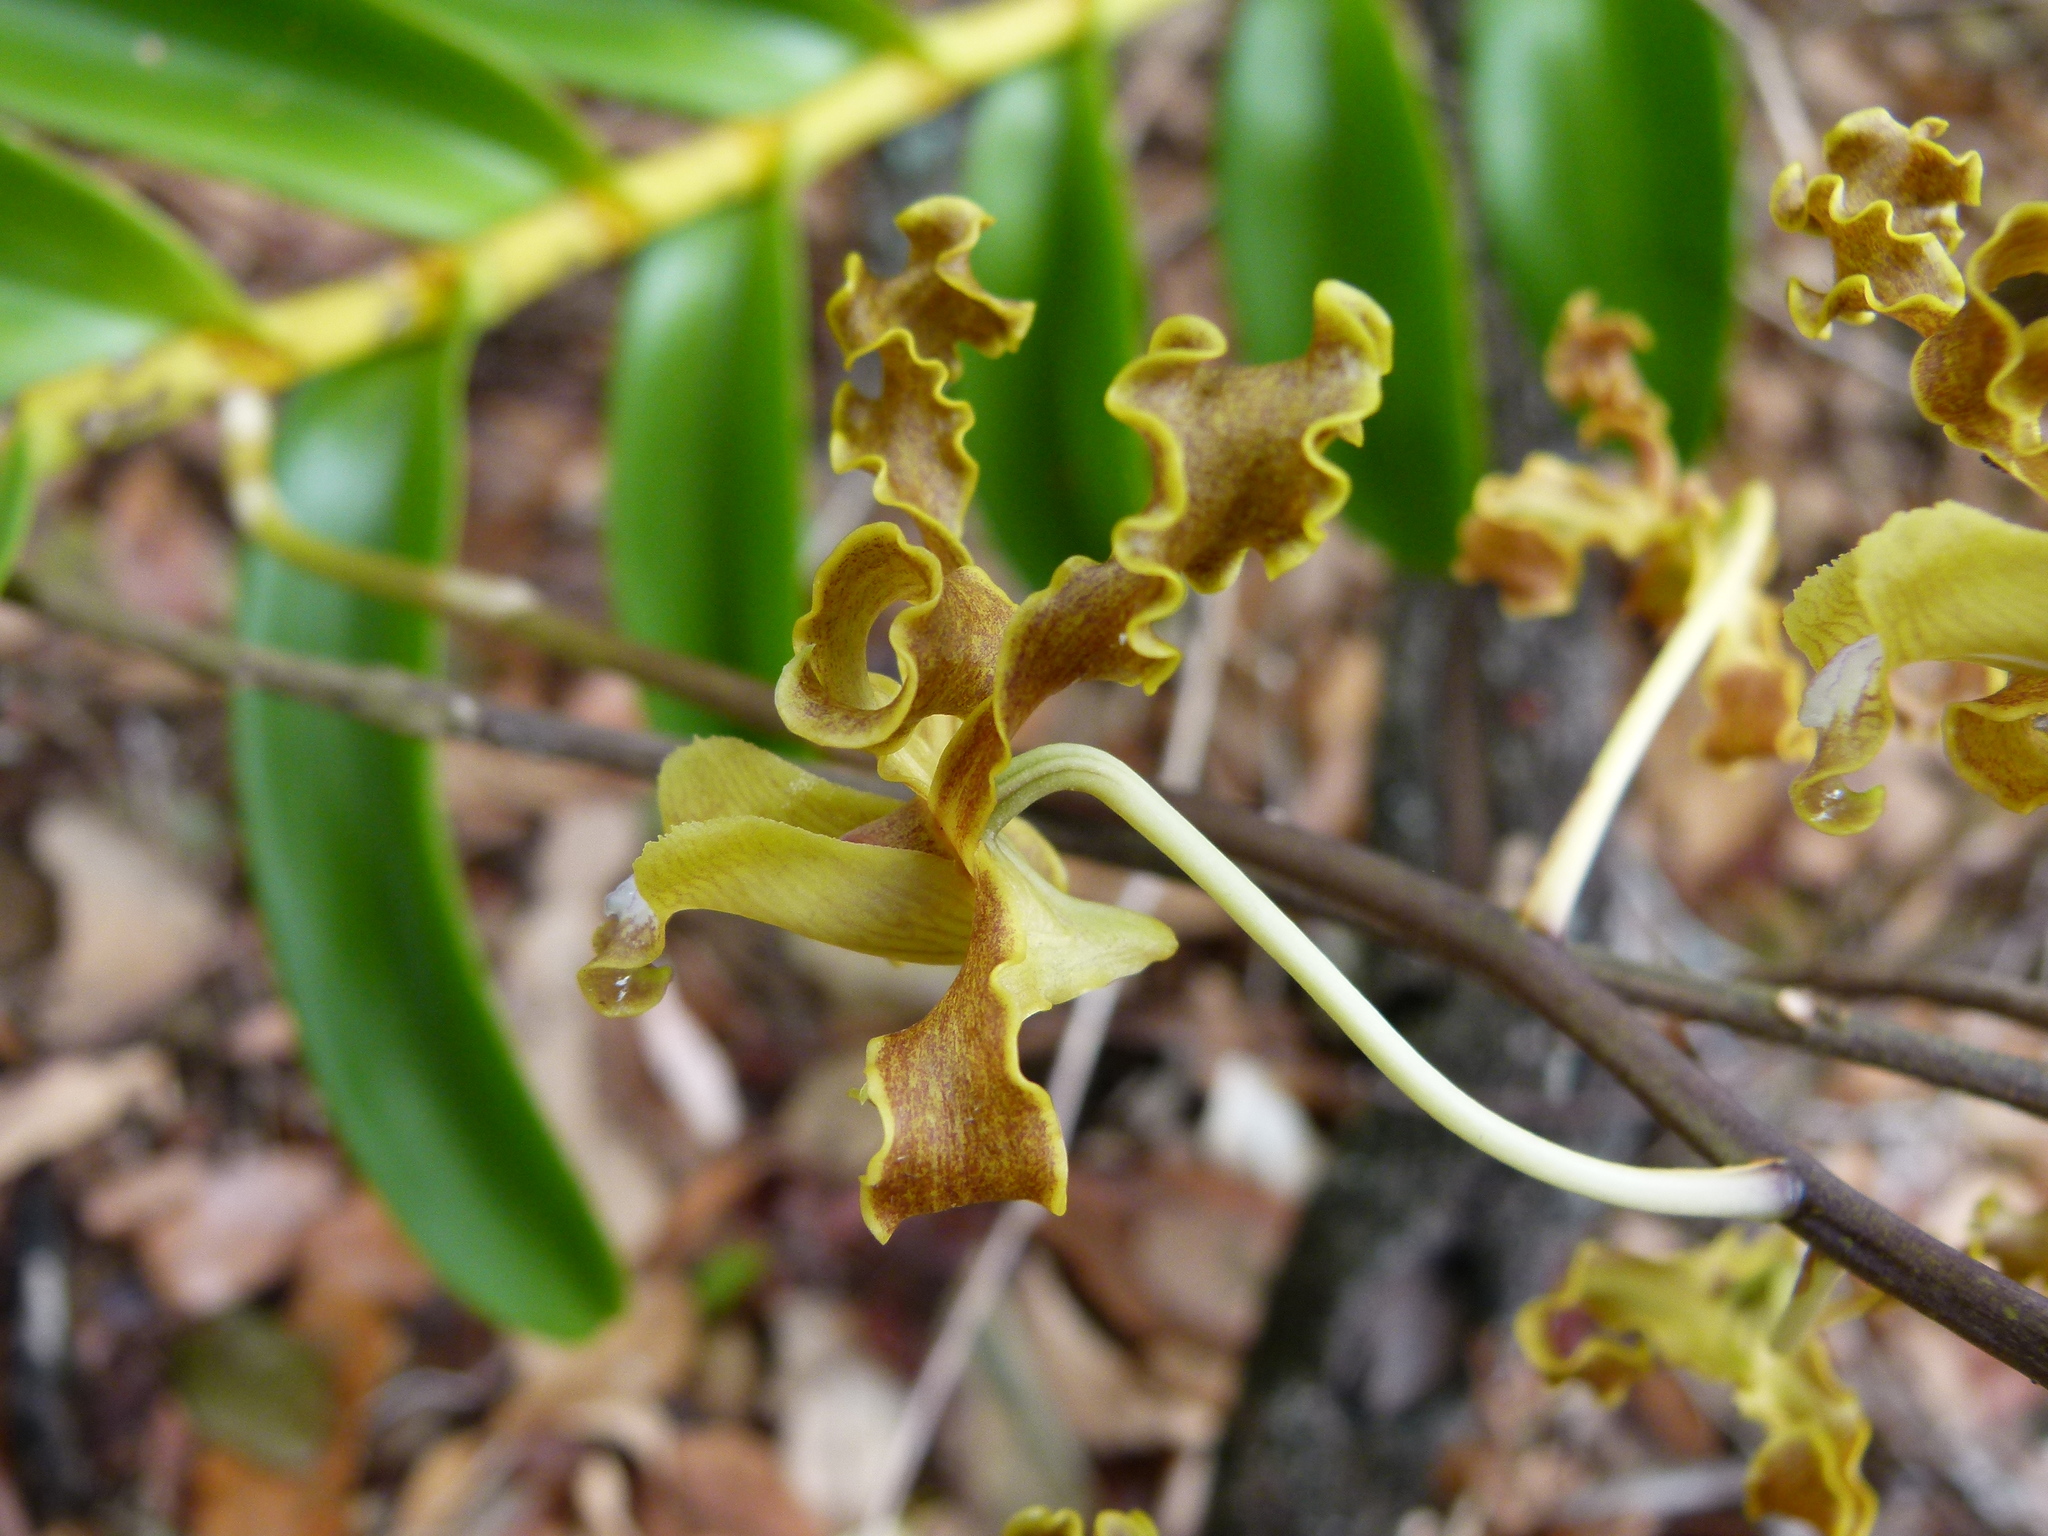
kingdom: Plantae
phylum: Tracheophyta
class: Liliopsida
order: Asparagales
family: Orchidaceae
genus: Dendrobium
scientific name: Dendrobium discolor
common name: Golden antler orchid
